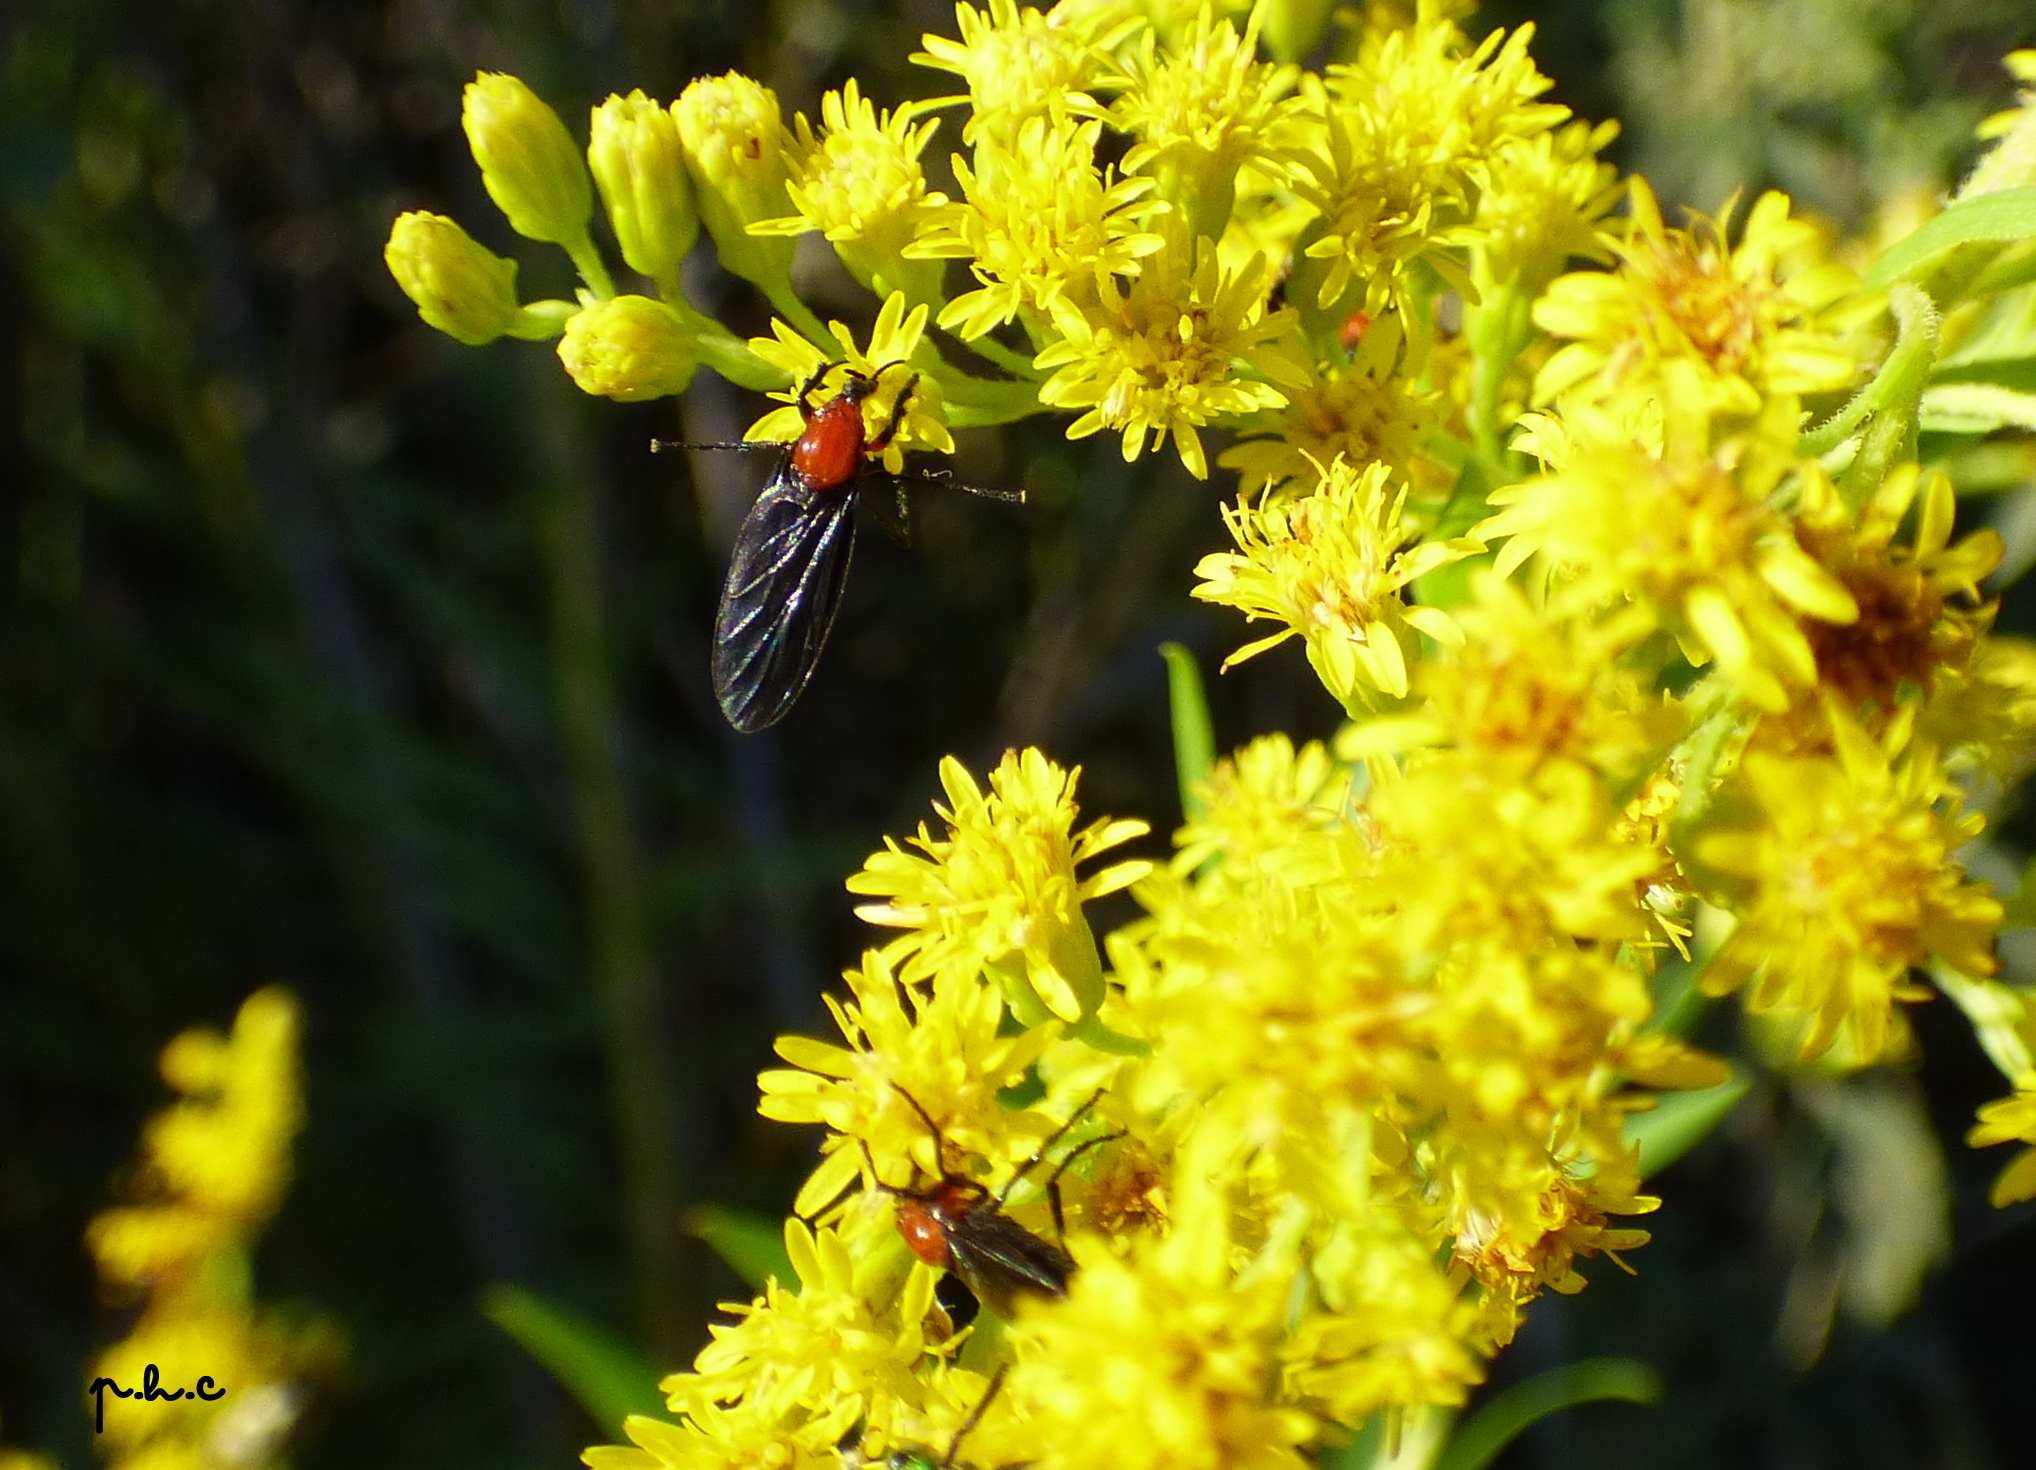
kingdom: Animalia
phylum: Arthropoda
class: Insecta
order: Diptera
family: Bibionidae
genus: Dilophus
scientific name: Dilophus pectoralis
